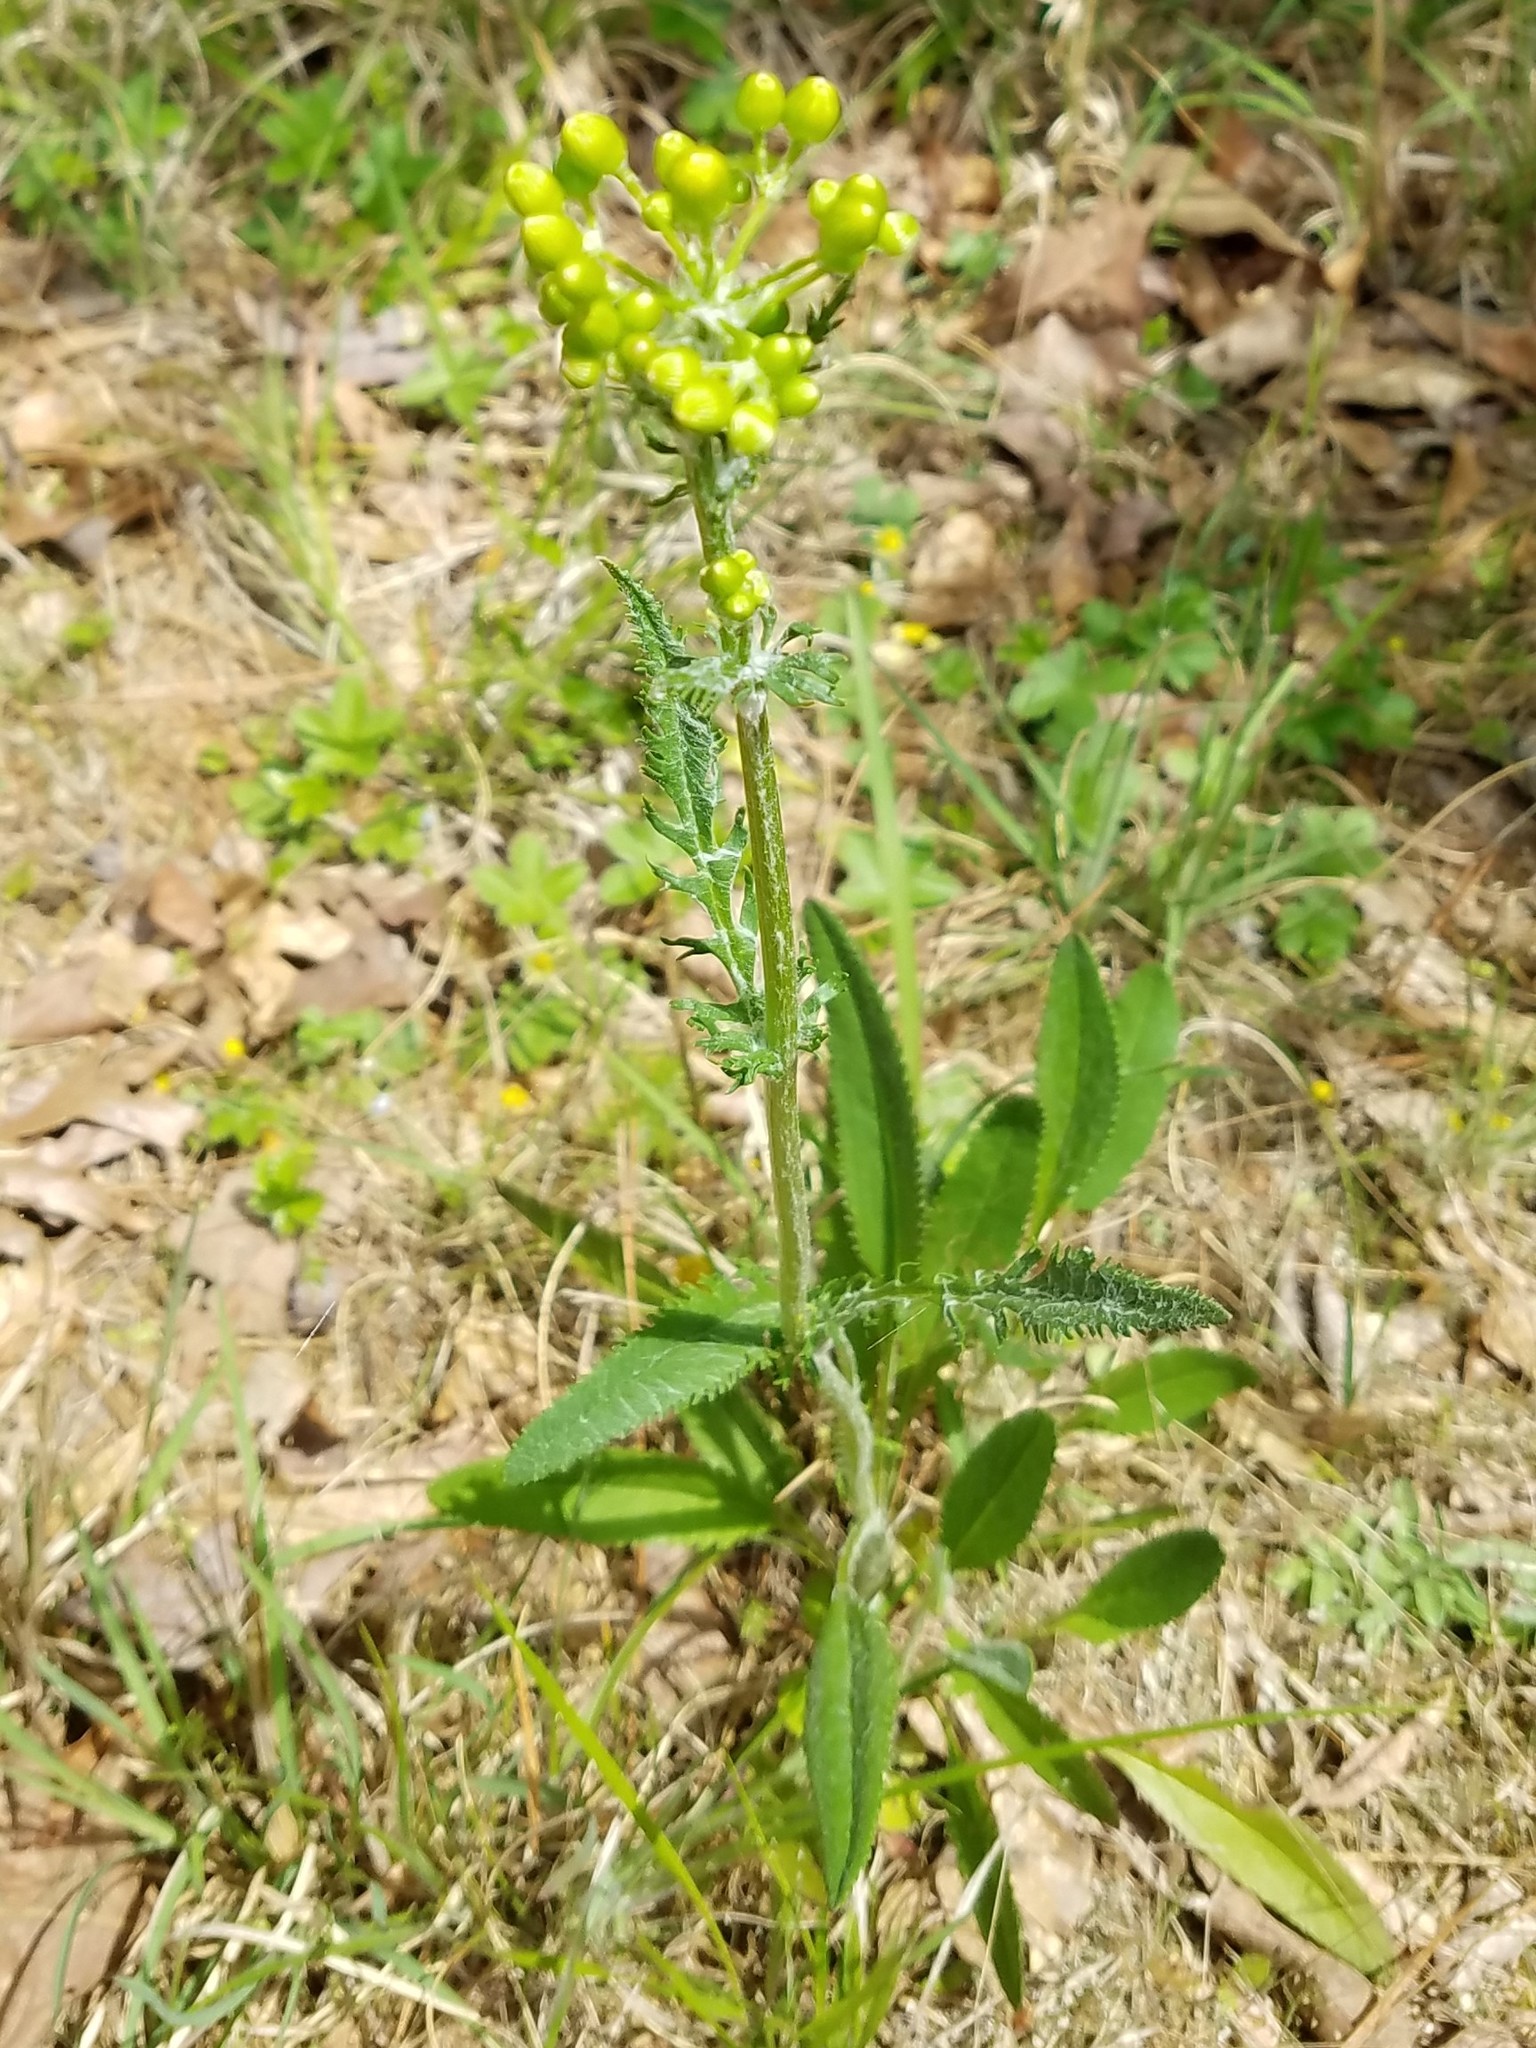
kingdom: Plantae
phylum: Tracheophyta
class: Magnoliopsida
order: Asterales
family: Asteraceae
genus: Packera
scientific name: Packera anonyma
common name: Small ragwort
